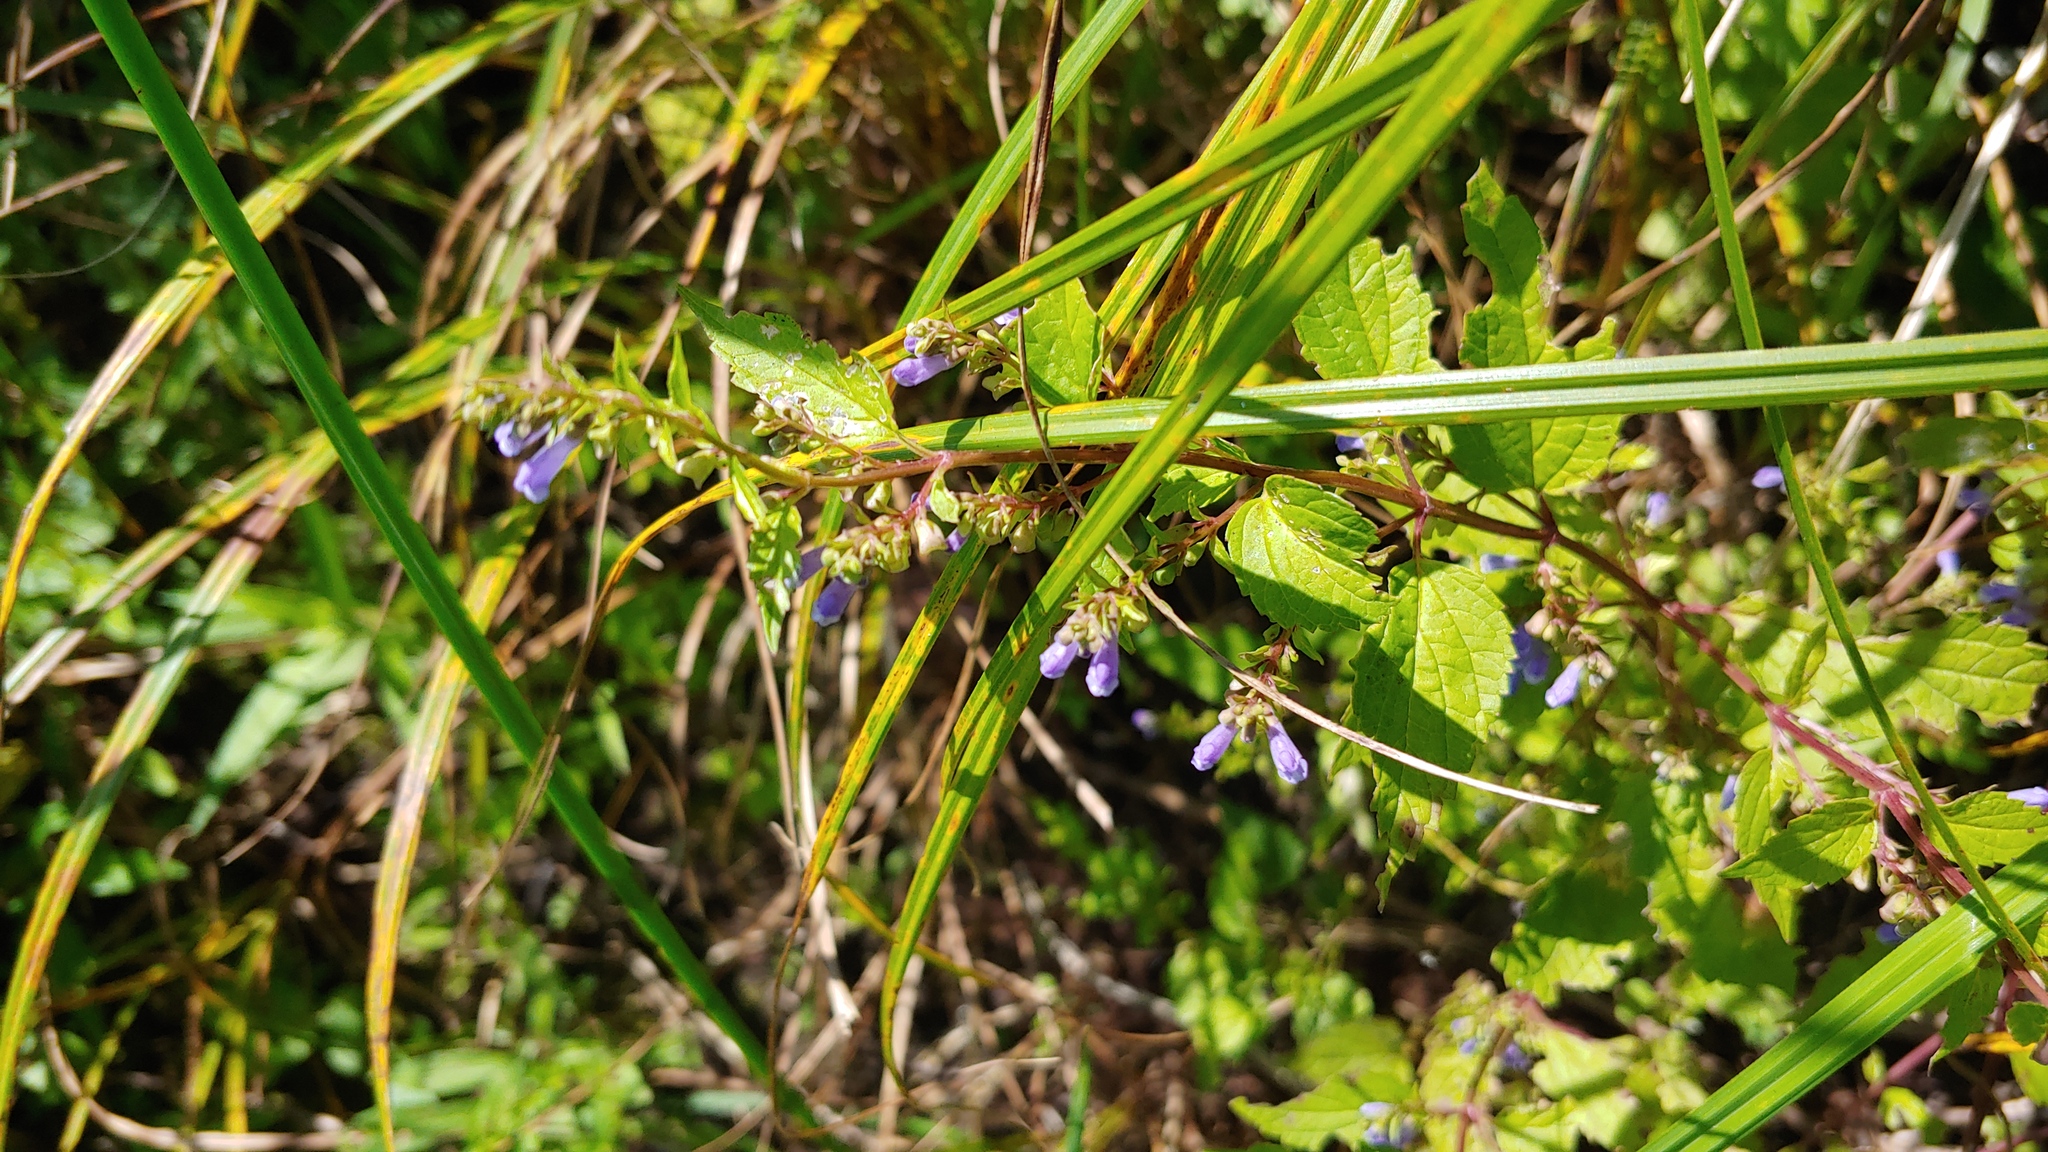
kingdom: Plantae
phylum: Tracheophyta
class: Magnoliopsida
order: Lamiales
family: Lamiaceae
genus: Scutellaria
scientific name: Scutellaria lateriflora
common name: Blue skullcap
